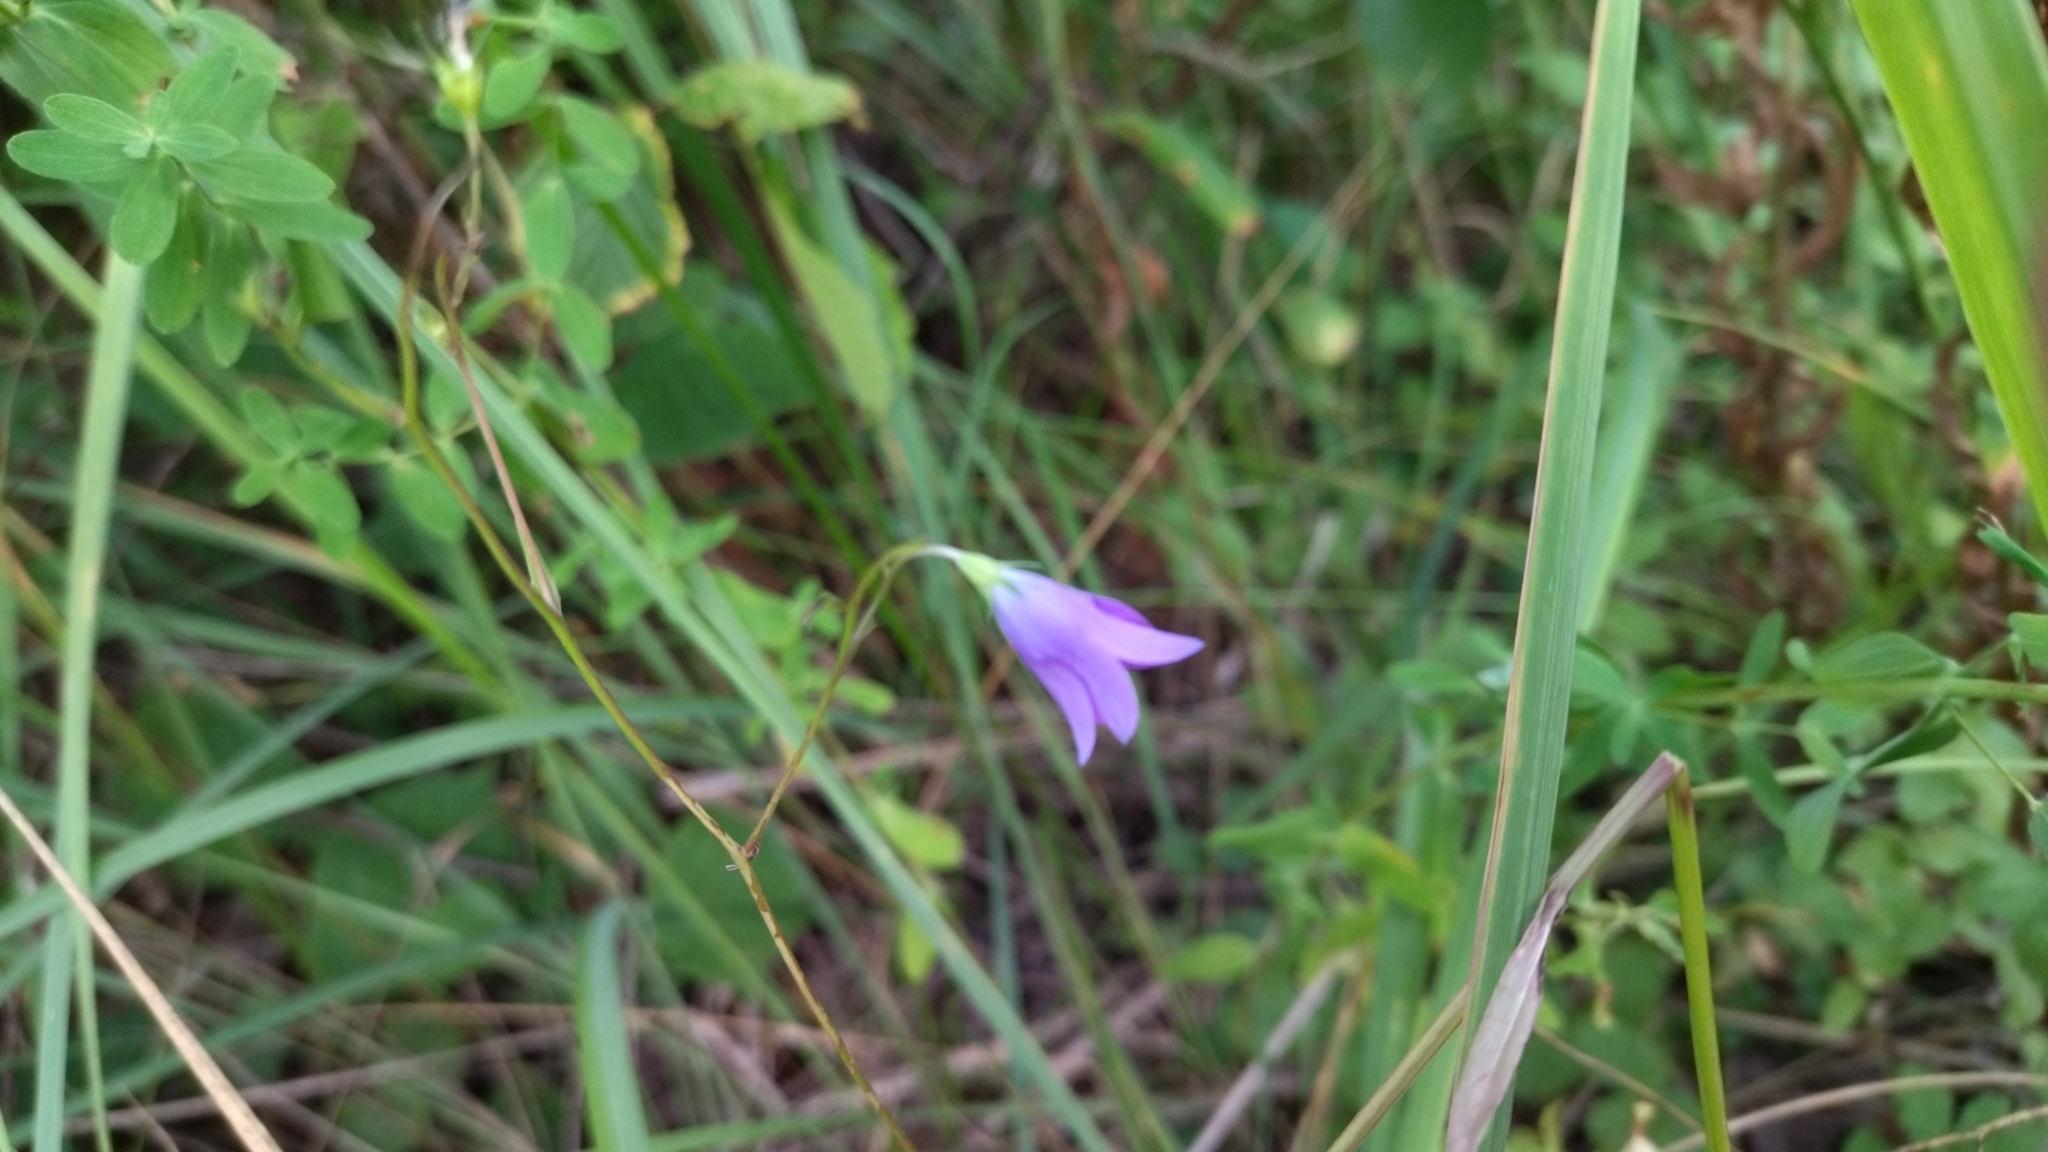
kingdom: Plantae
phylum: Tracheophyta
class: Magnoliopsida
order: Asterales
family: Campanulaceae
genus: Campanula
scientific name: Campanula patula
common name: Spreading bellflower
